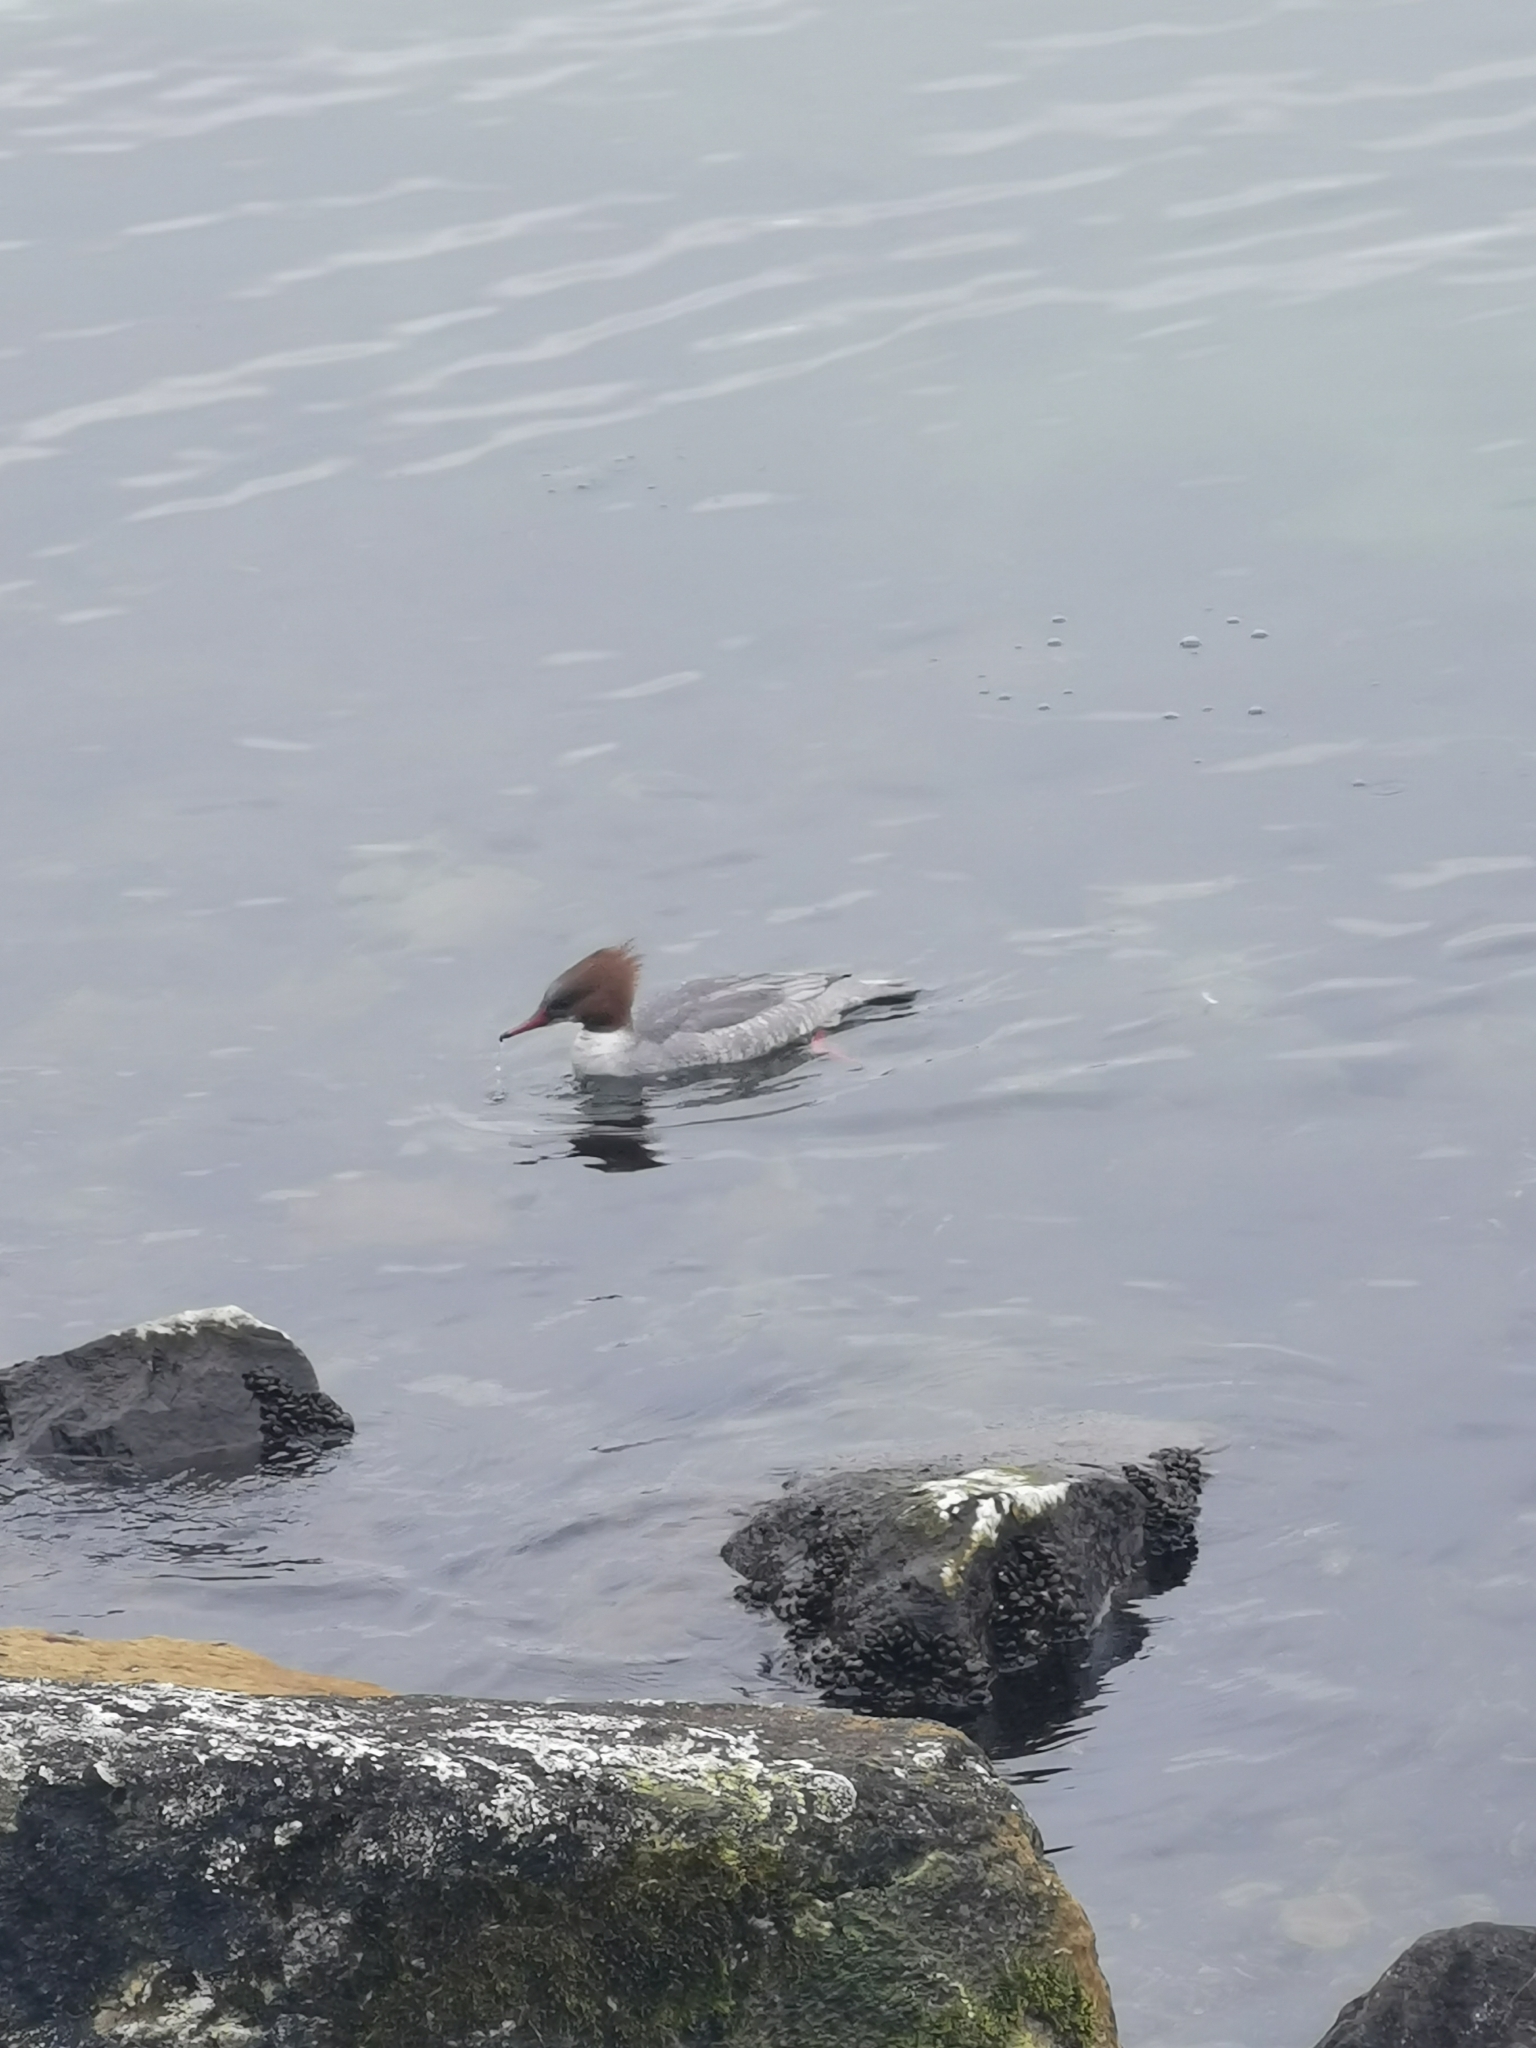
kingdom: Animalia
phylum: Chordata
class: Aves
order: Anseriformes
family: Anatidae
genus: Mergus
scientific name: Mergus merganser
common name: Common merganser
